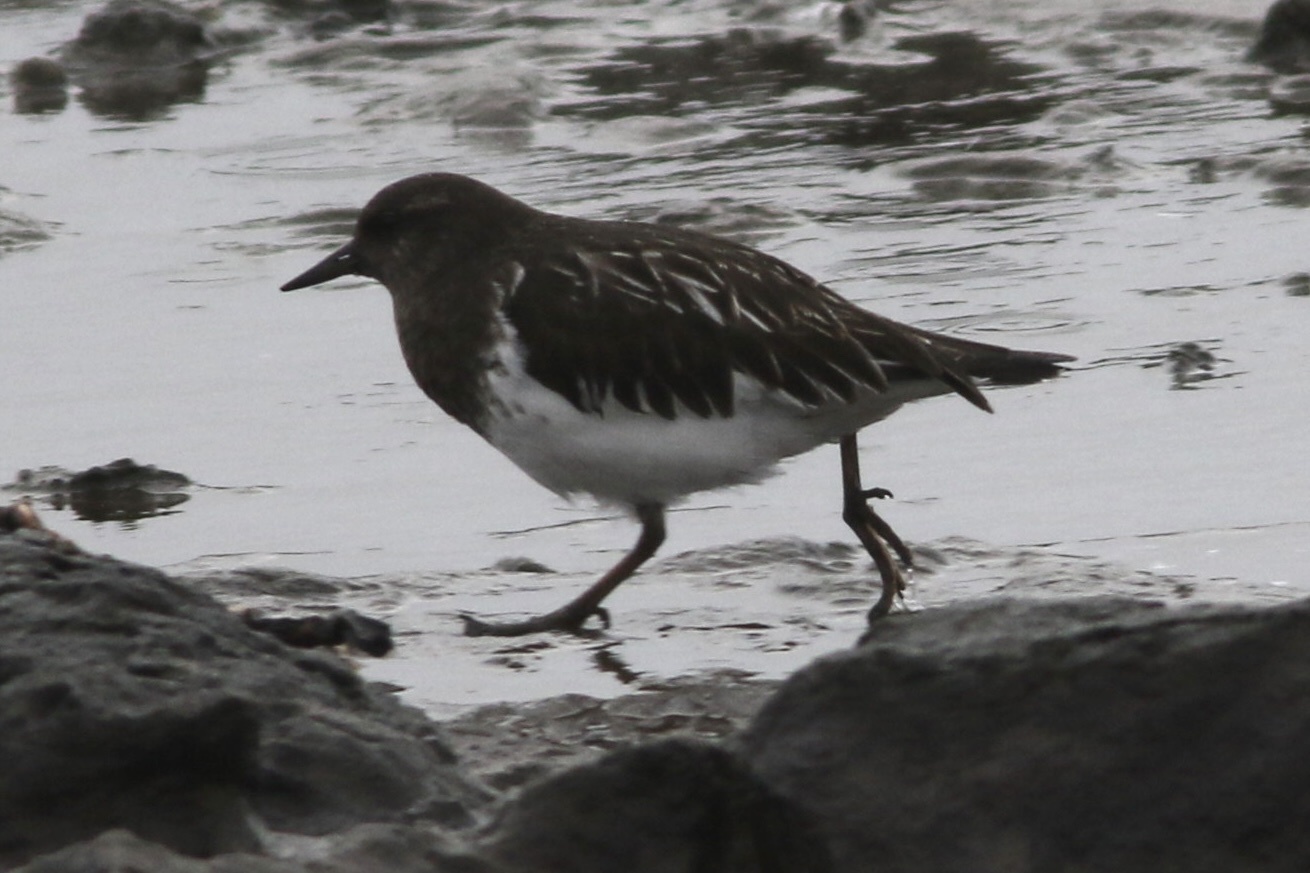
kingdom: Animalia
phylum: Chordata
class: Aves
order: Charadriiformes
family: Scolopacidae
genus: Arenaria
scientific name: Arenaria melanocephala
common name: Black turnstone
